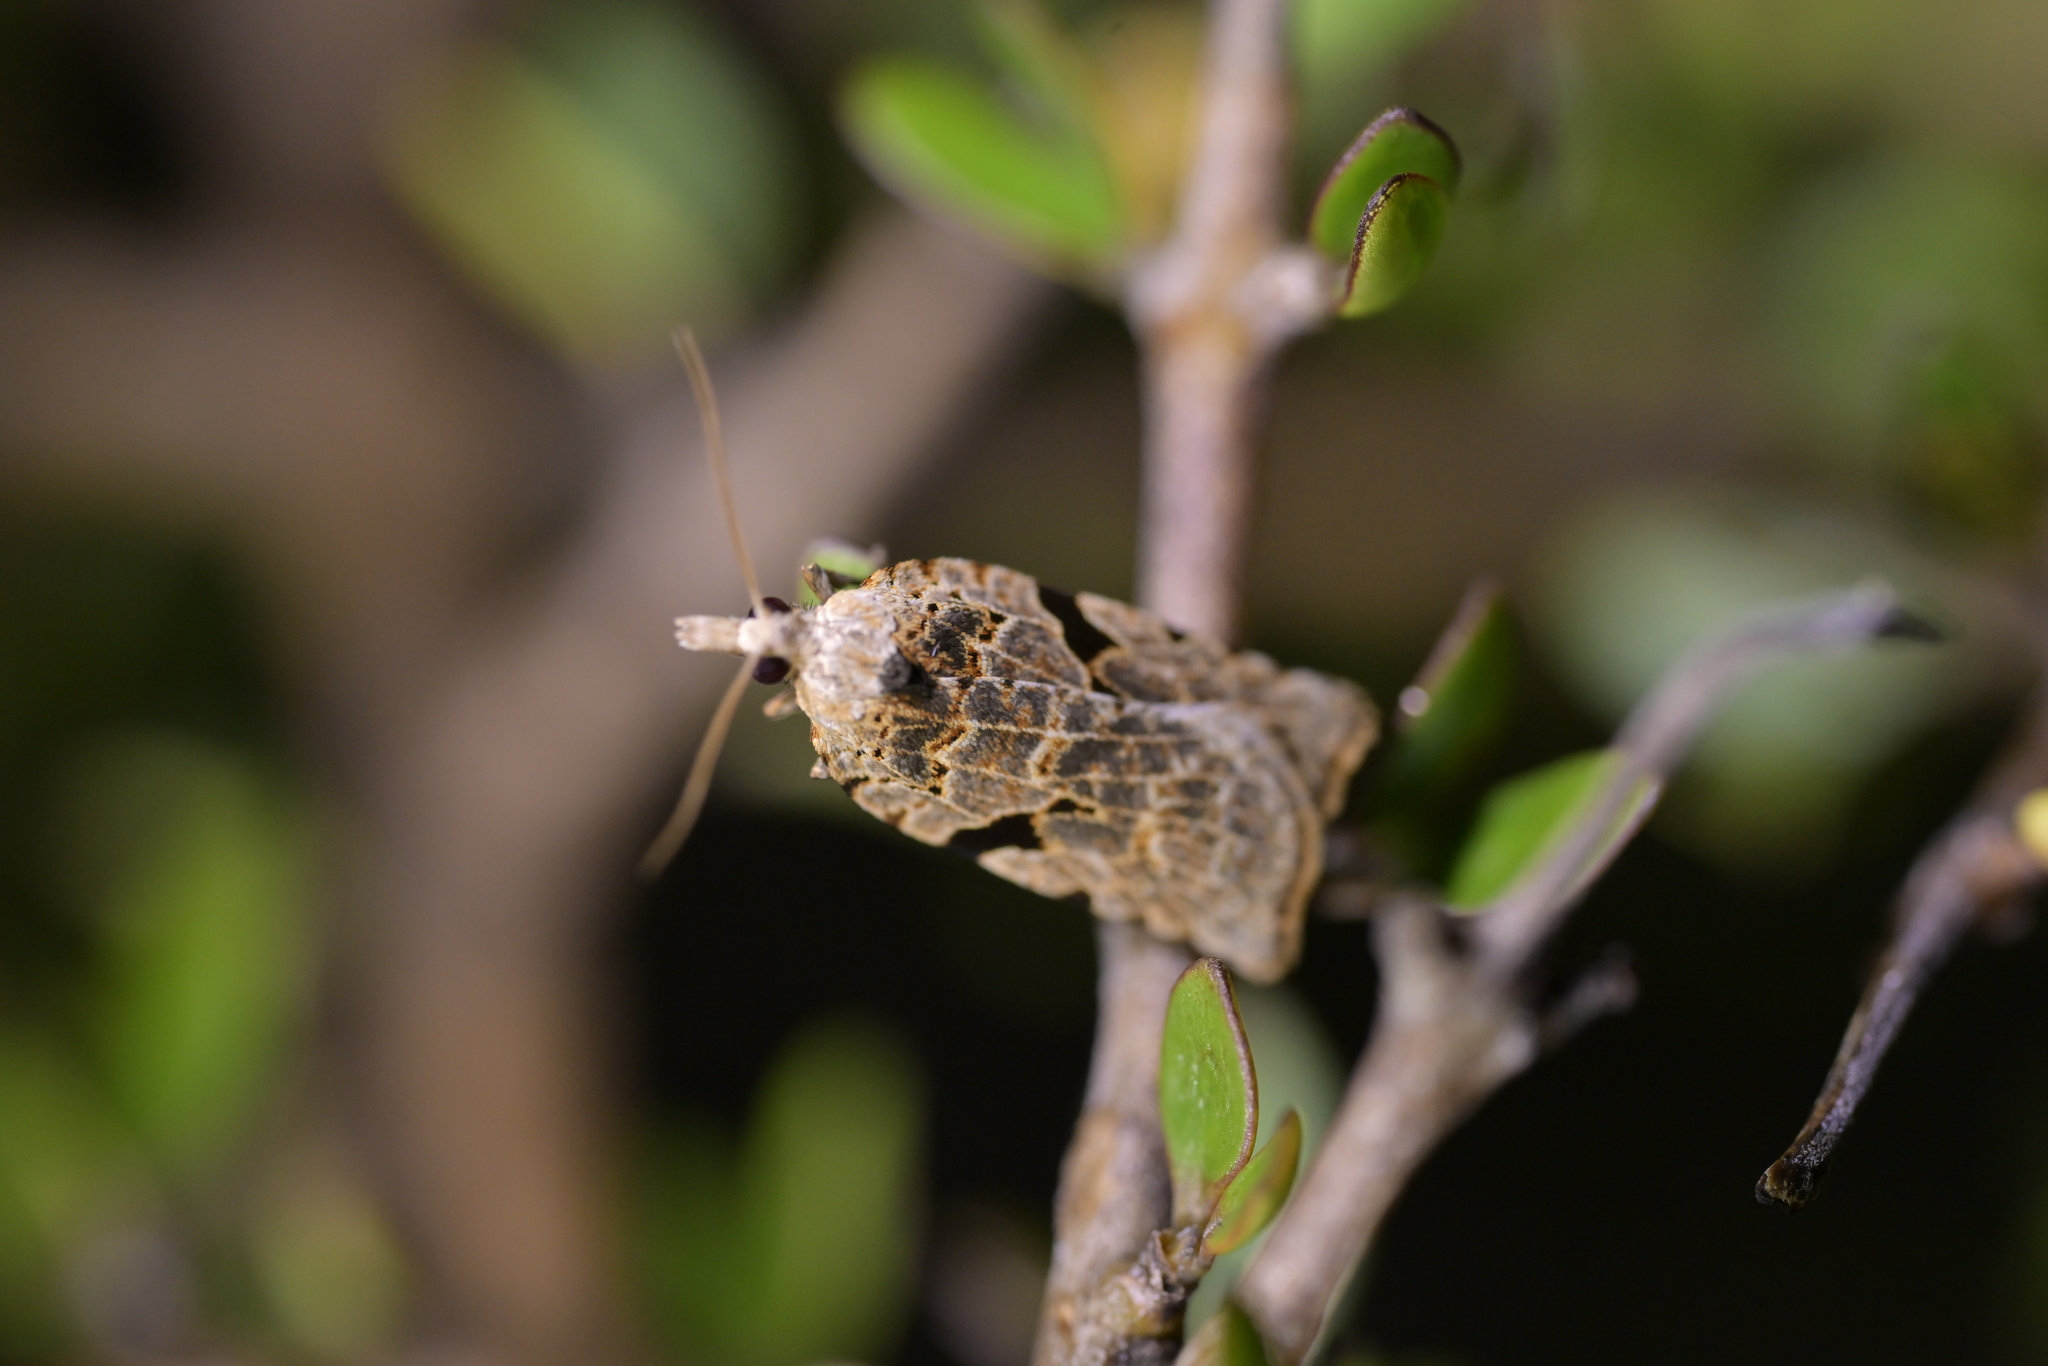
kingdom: Animalia
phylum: Arthropoda
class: Insecta
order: Lepidoptera
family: Tortricidae
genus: Leucotenes
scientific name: Leucotenes coprosmae
